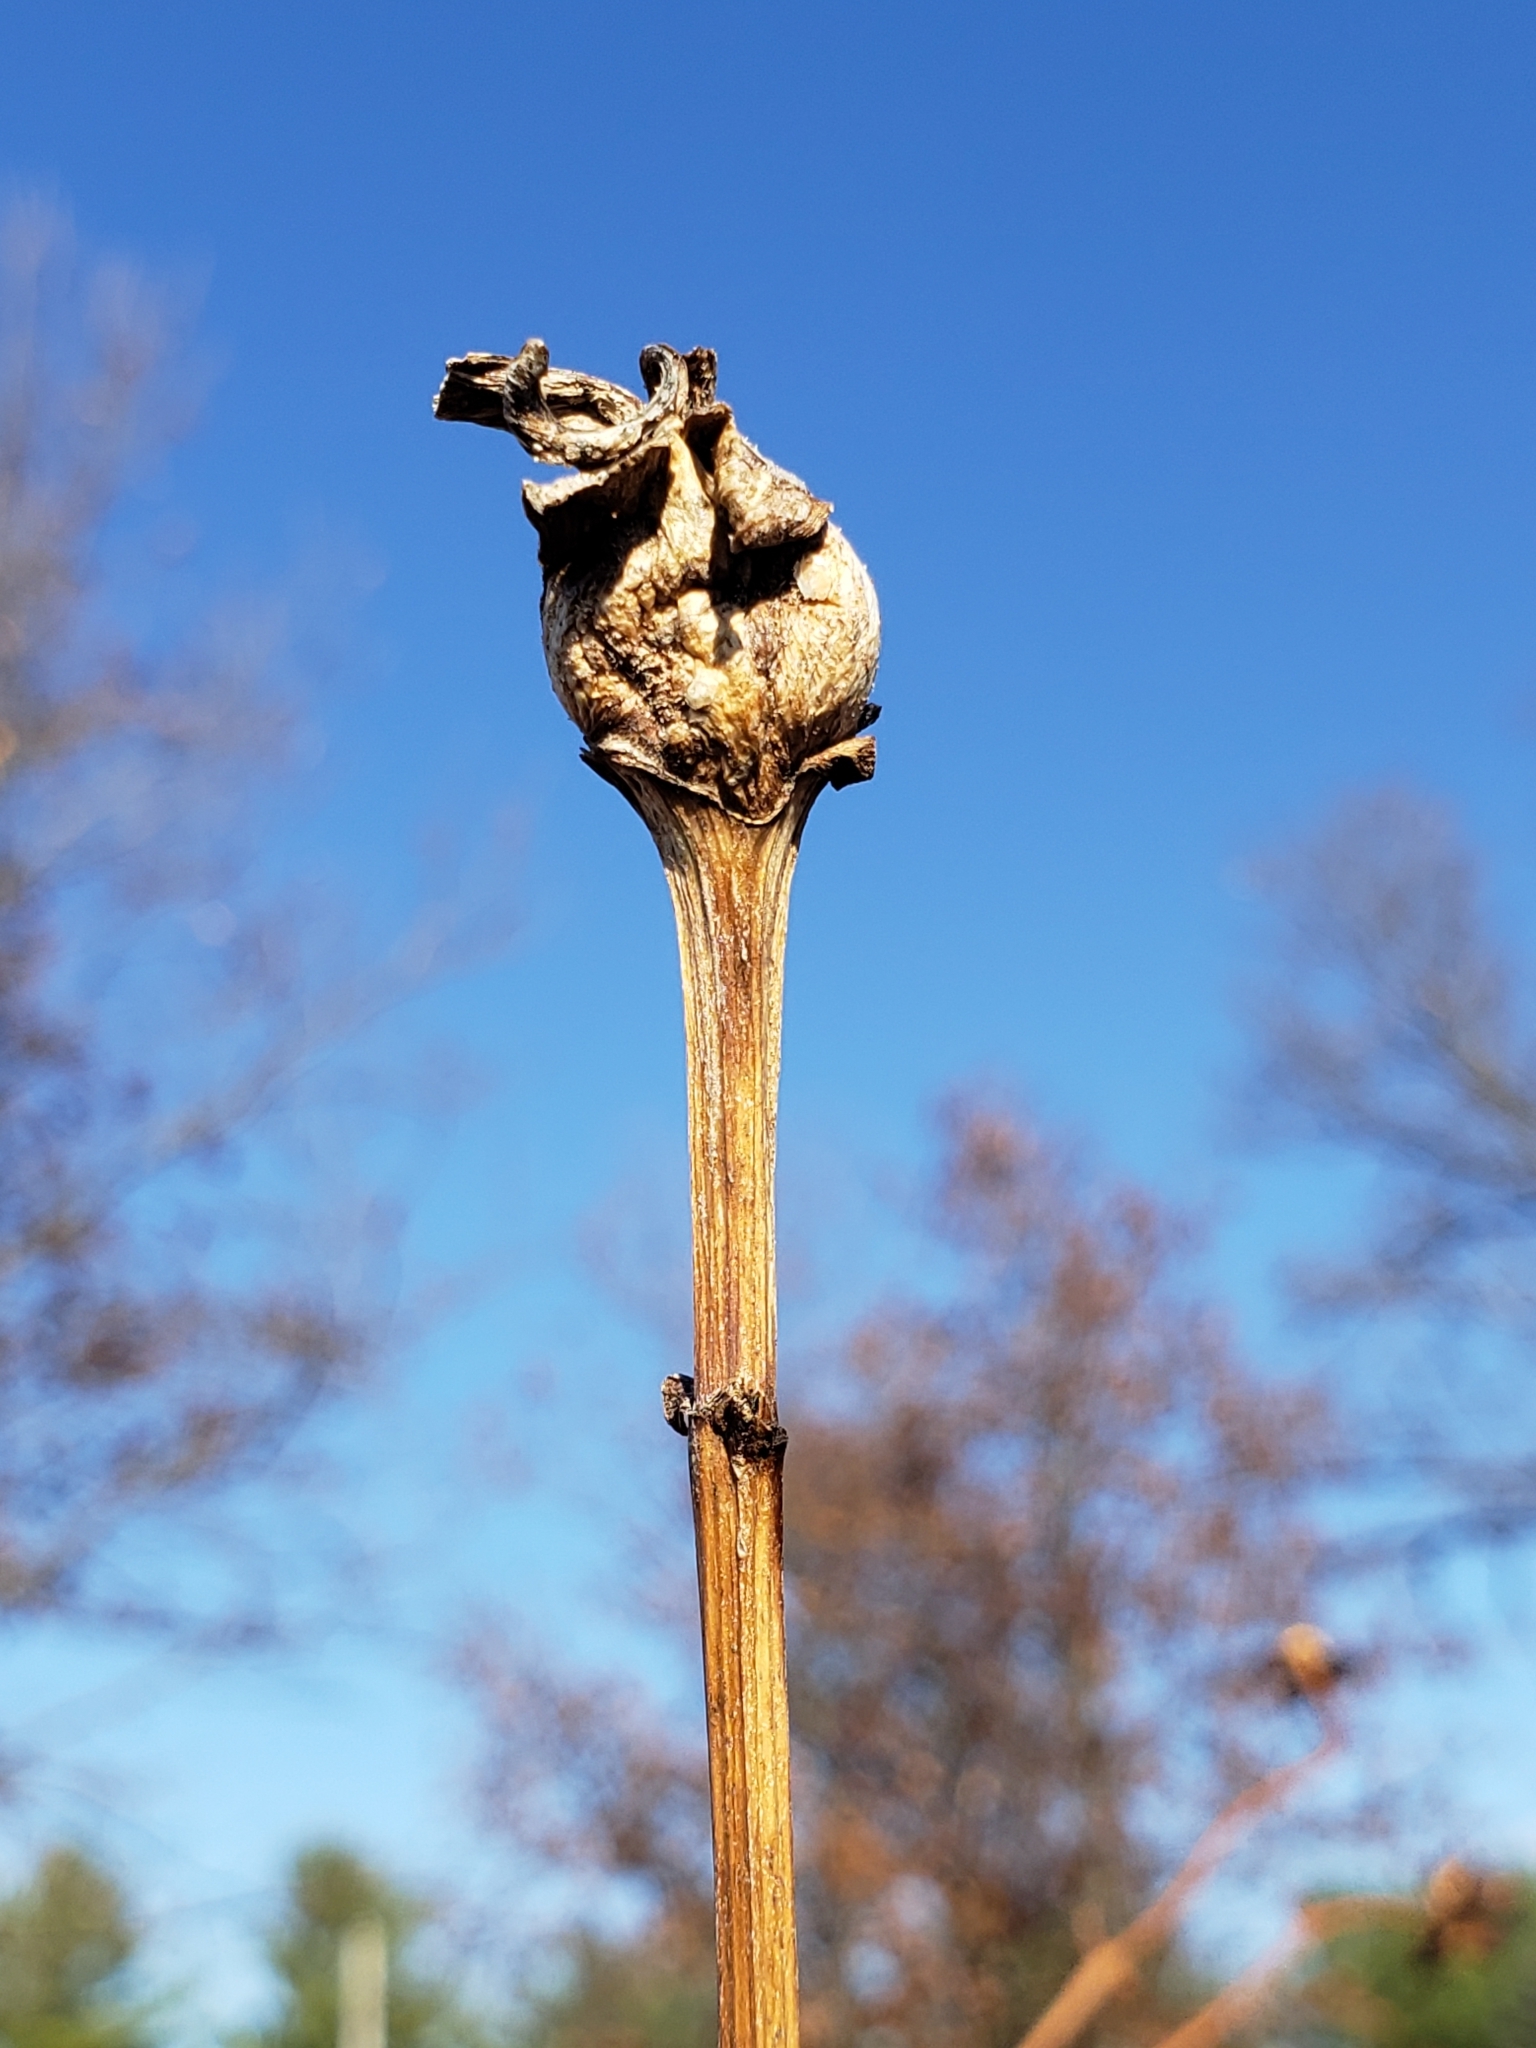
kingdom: Animalia
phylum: Arthropoda
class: Insecta
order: Hymenoptera
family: Cynipidae
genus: Antistrophus
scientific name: Antistrophus silphii
